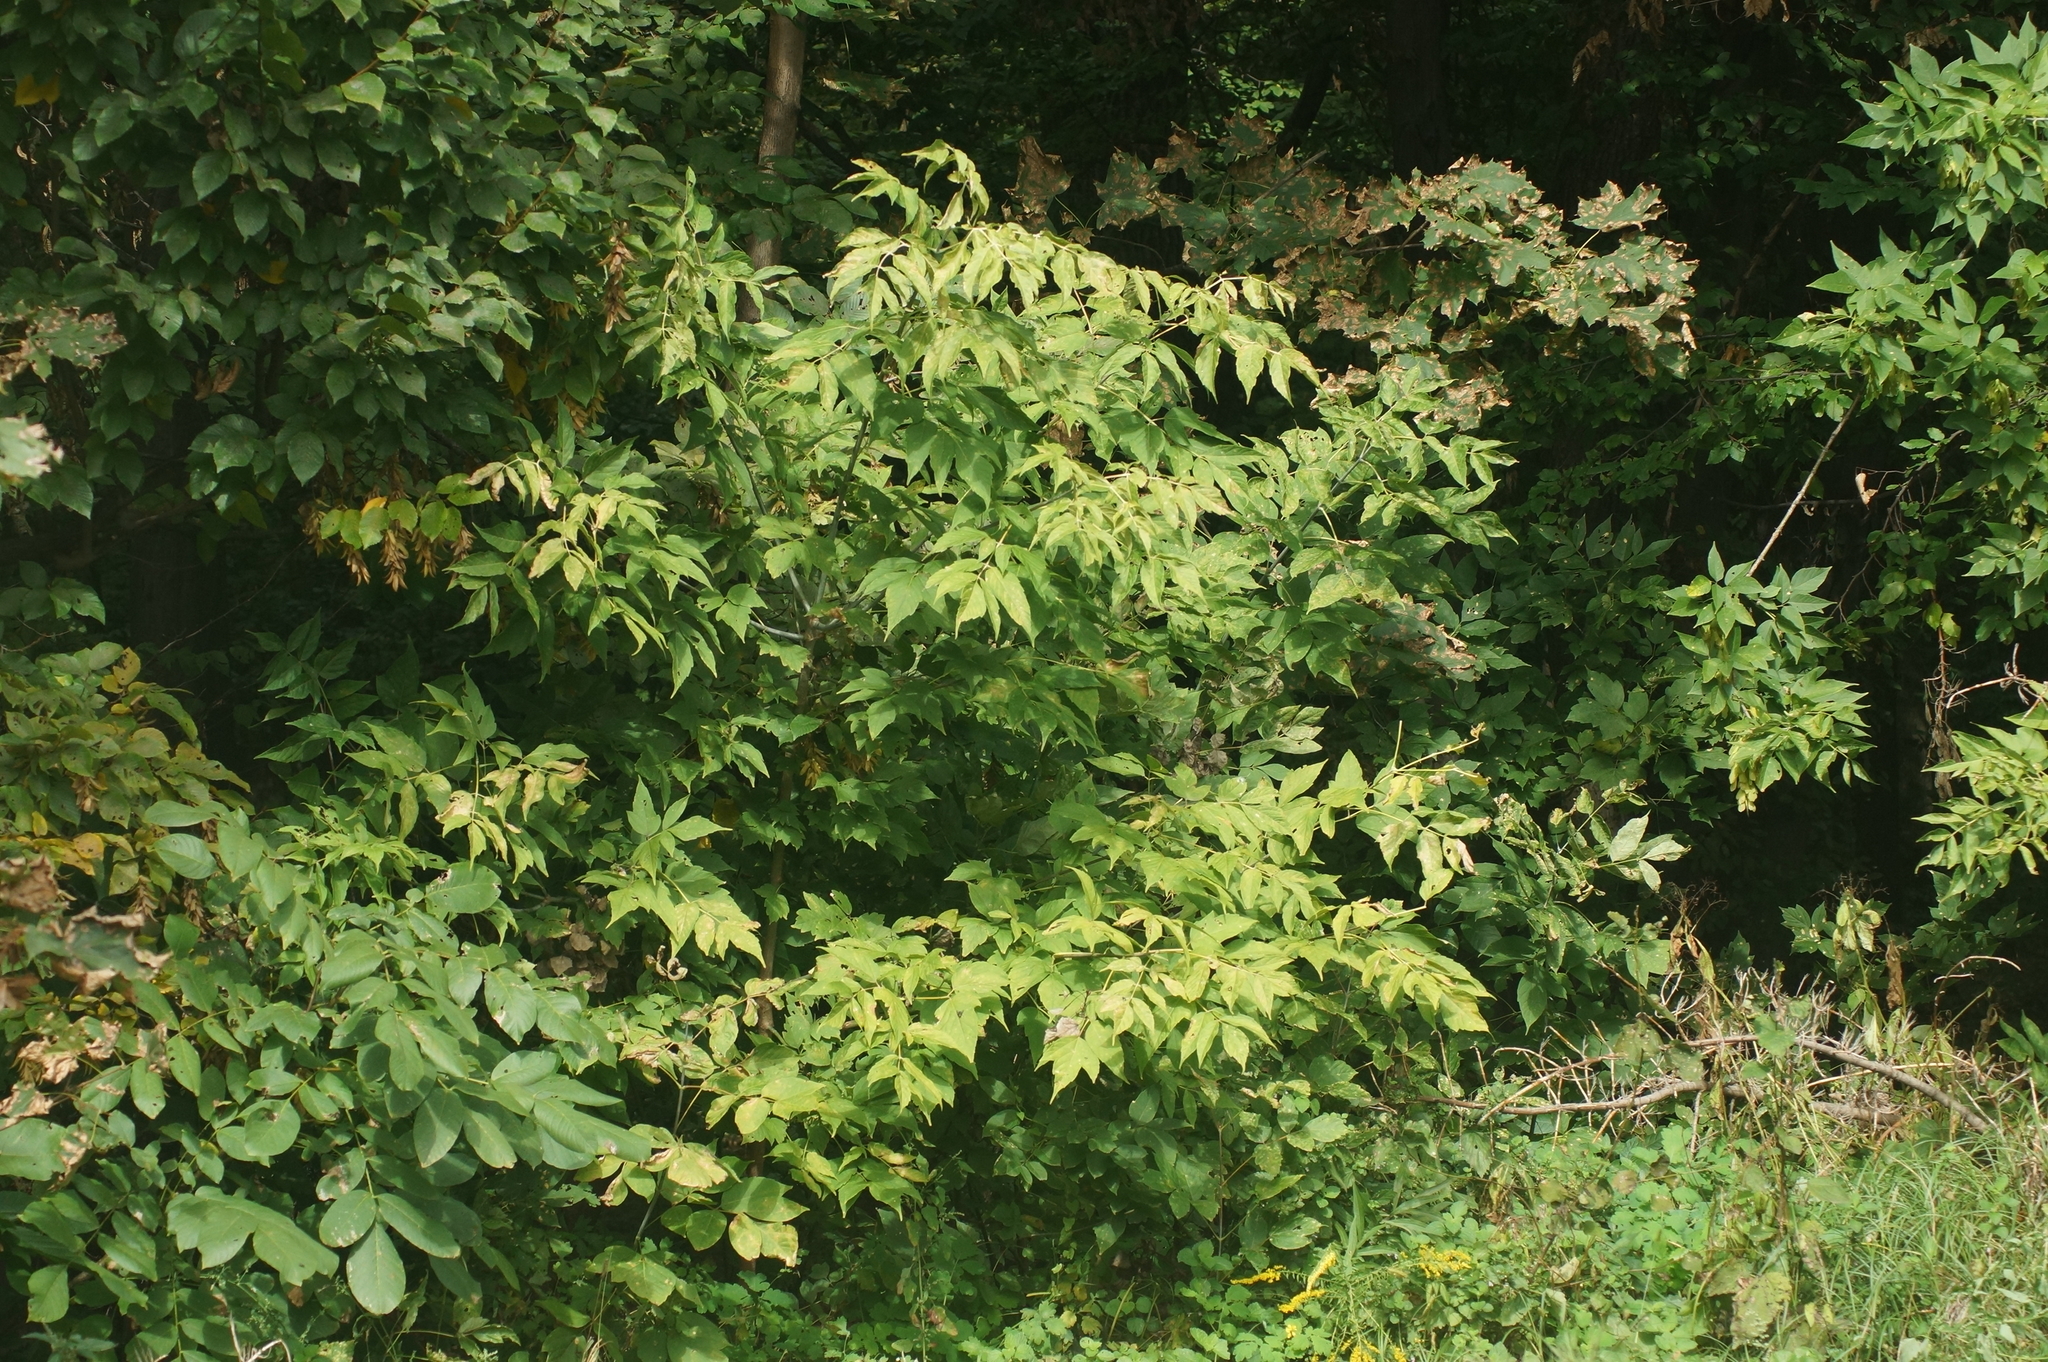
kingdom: Plantae
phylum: Tracheophyta
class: Magnoliopsida
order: Sapindales
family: Sapindaceae
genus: Acer
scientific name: Acer negundo
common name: Ashleaf maple
